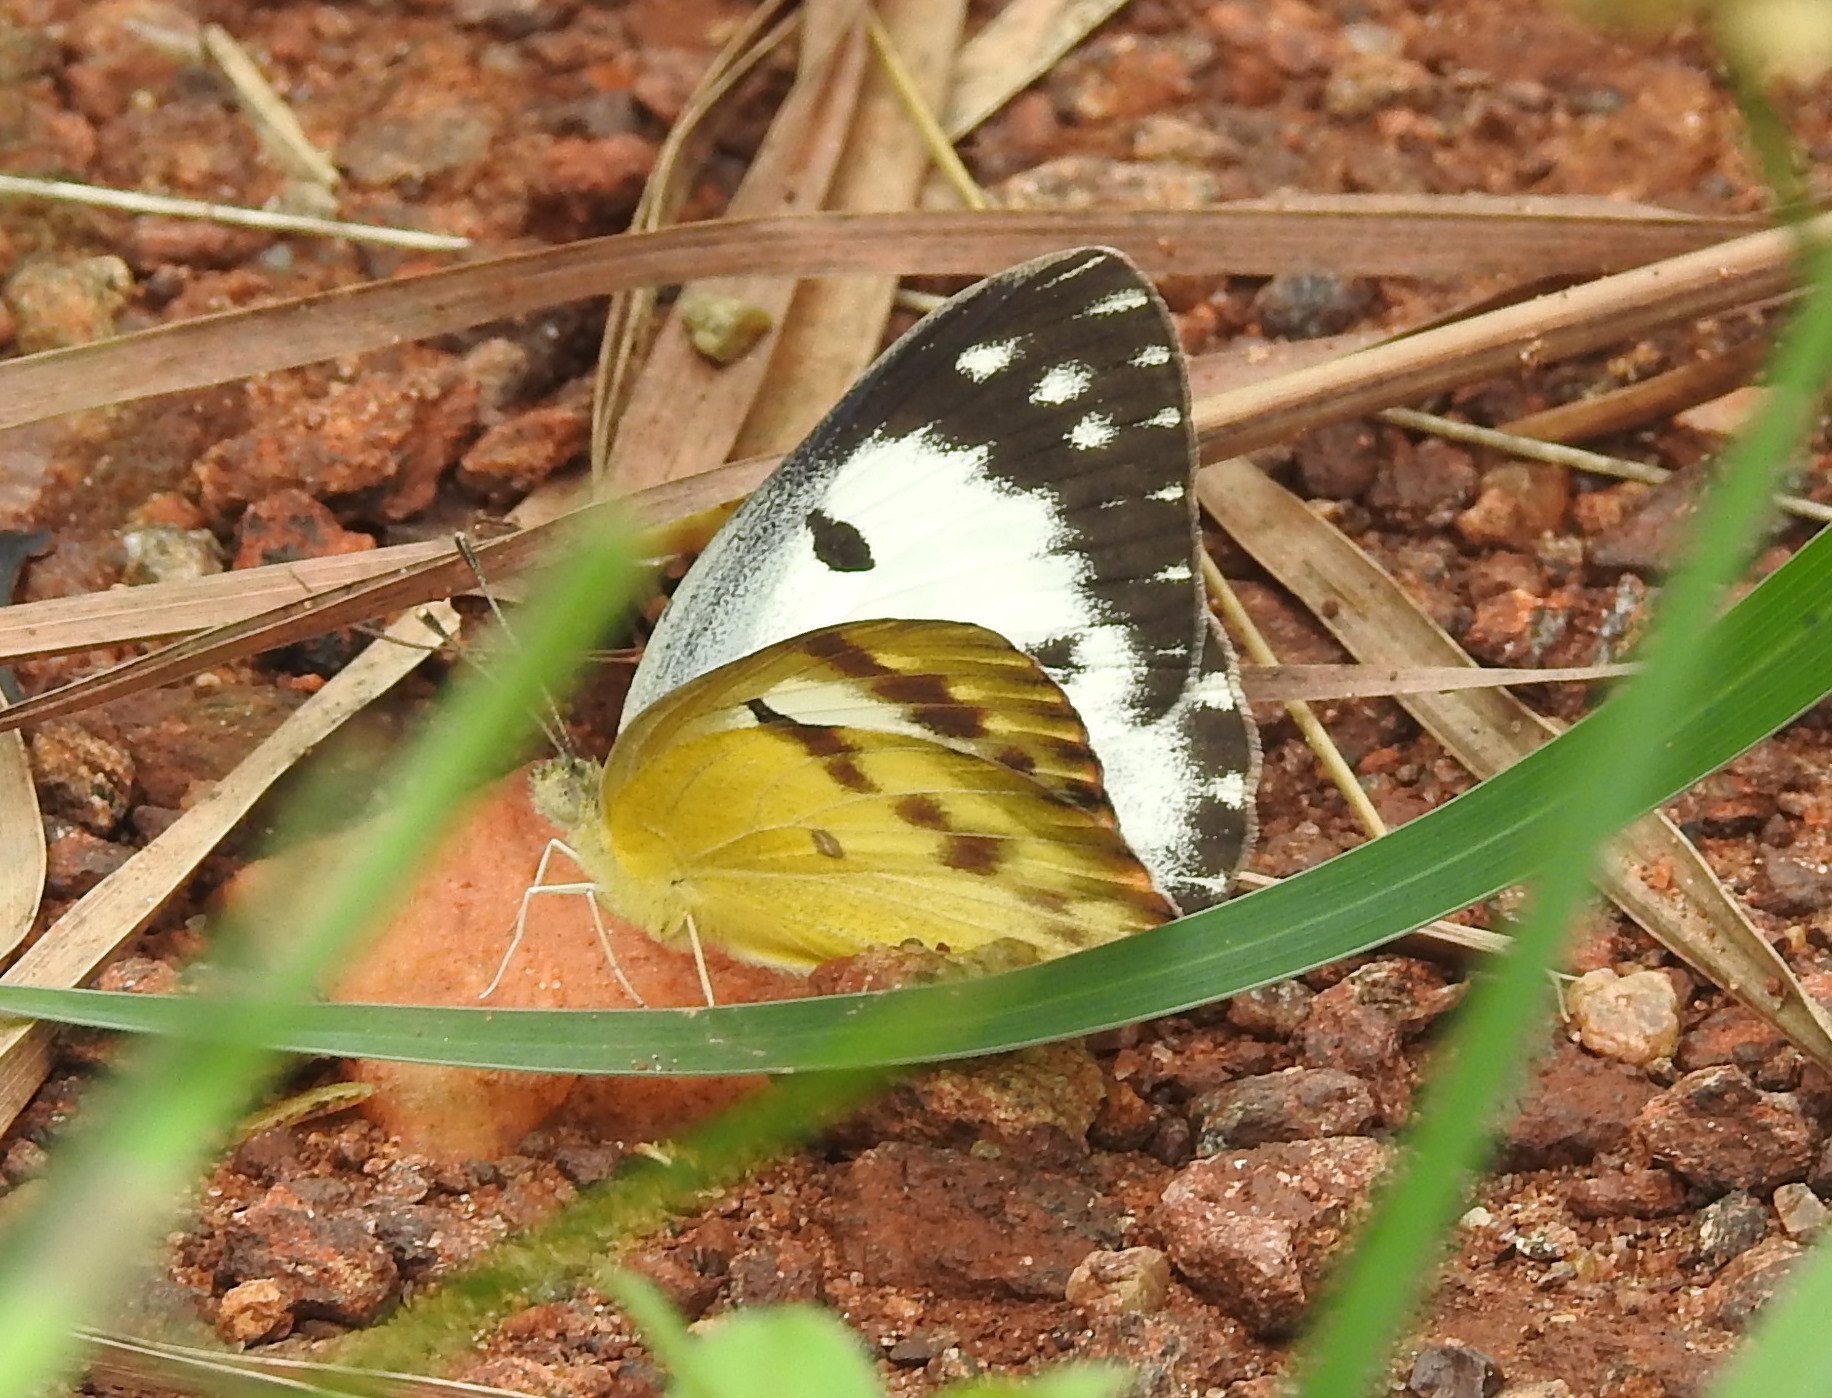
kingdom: Animalia
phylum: Arthropoda
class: Insecta
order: Lepidoptera
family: Pieridae
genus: Colotis
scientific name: Colotis fausta
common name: Large salmon arab
